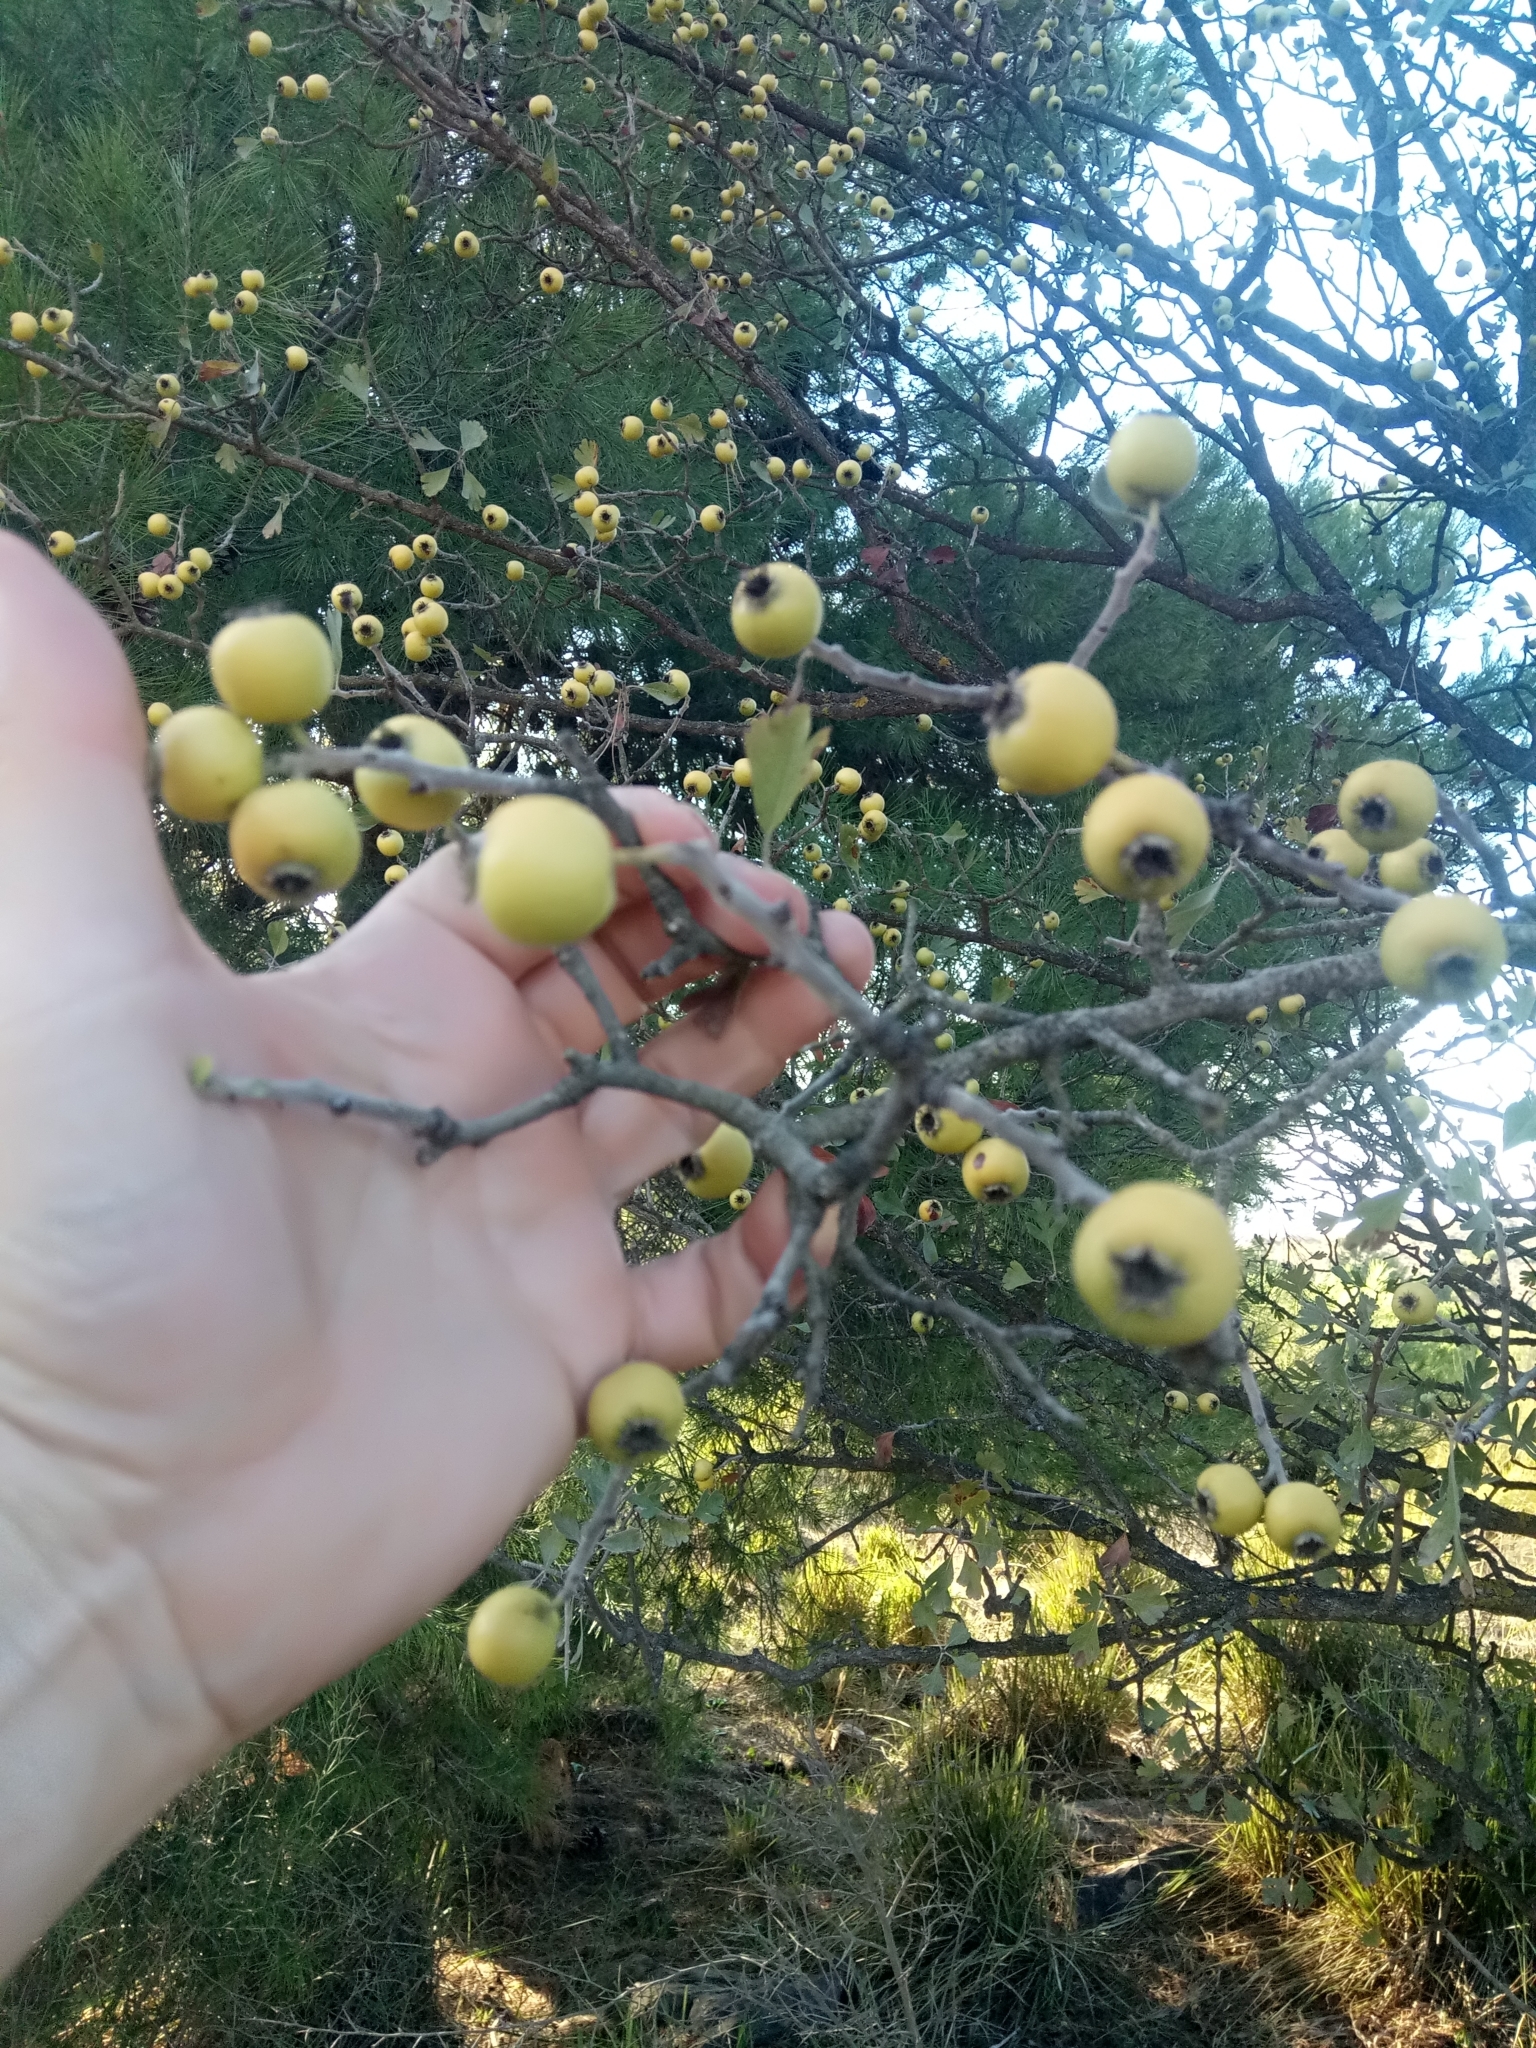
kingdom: Plantae
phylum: Tracheophyta
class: Magnoliopsida
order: Rosales
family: Rosaceae
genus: Crataegus
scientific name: Crataegus azarolus
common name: Azarole
